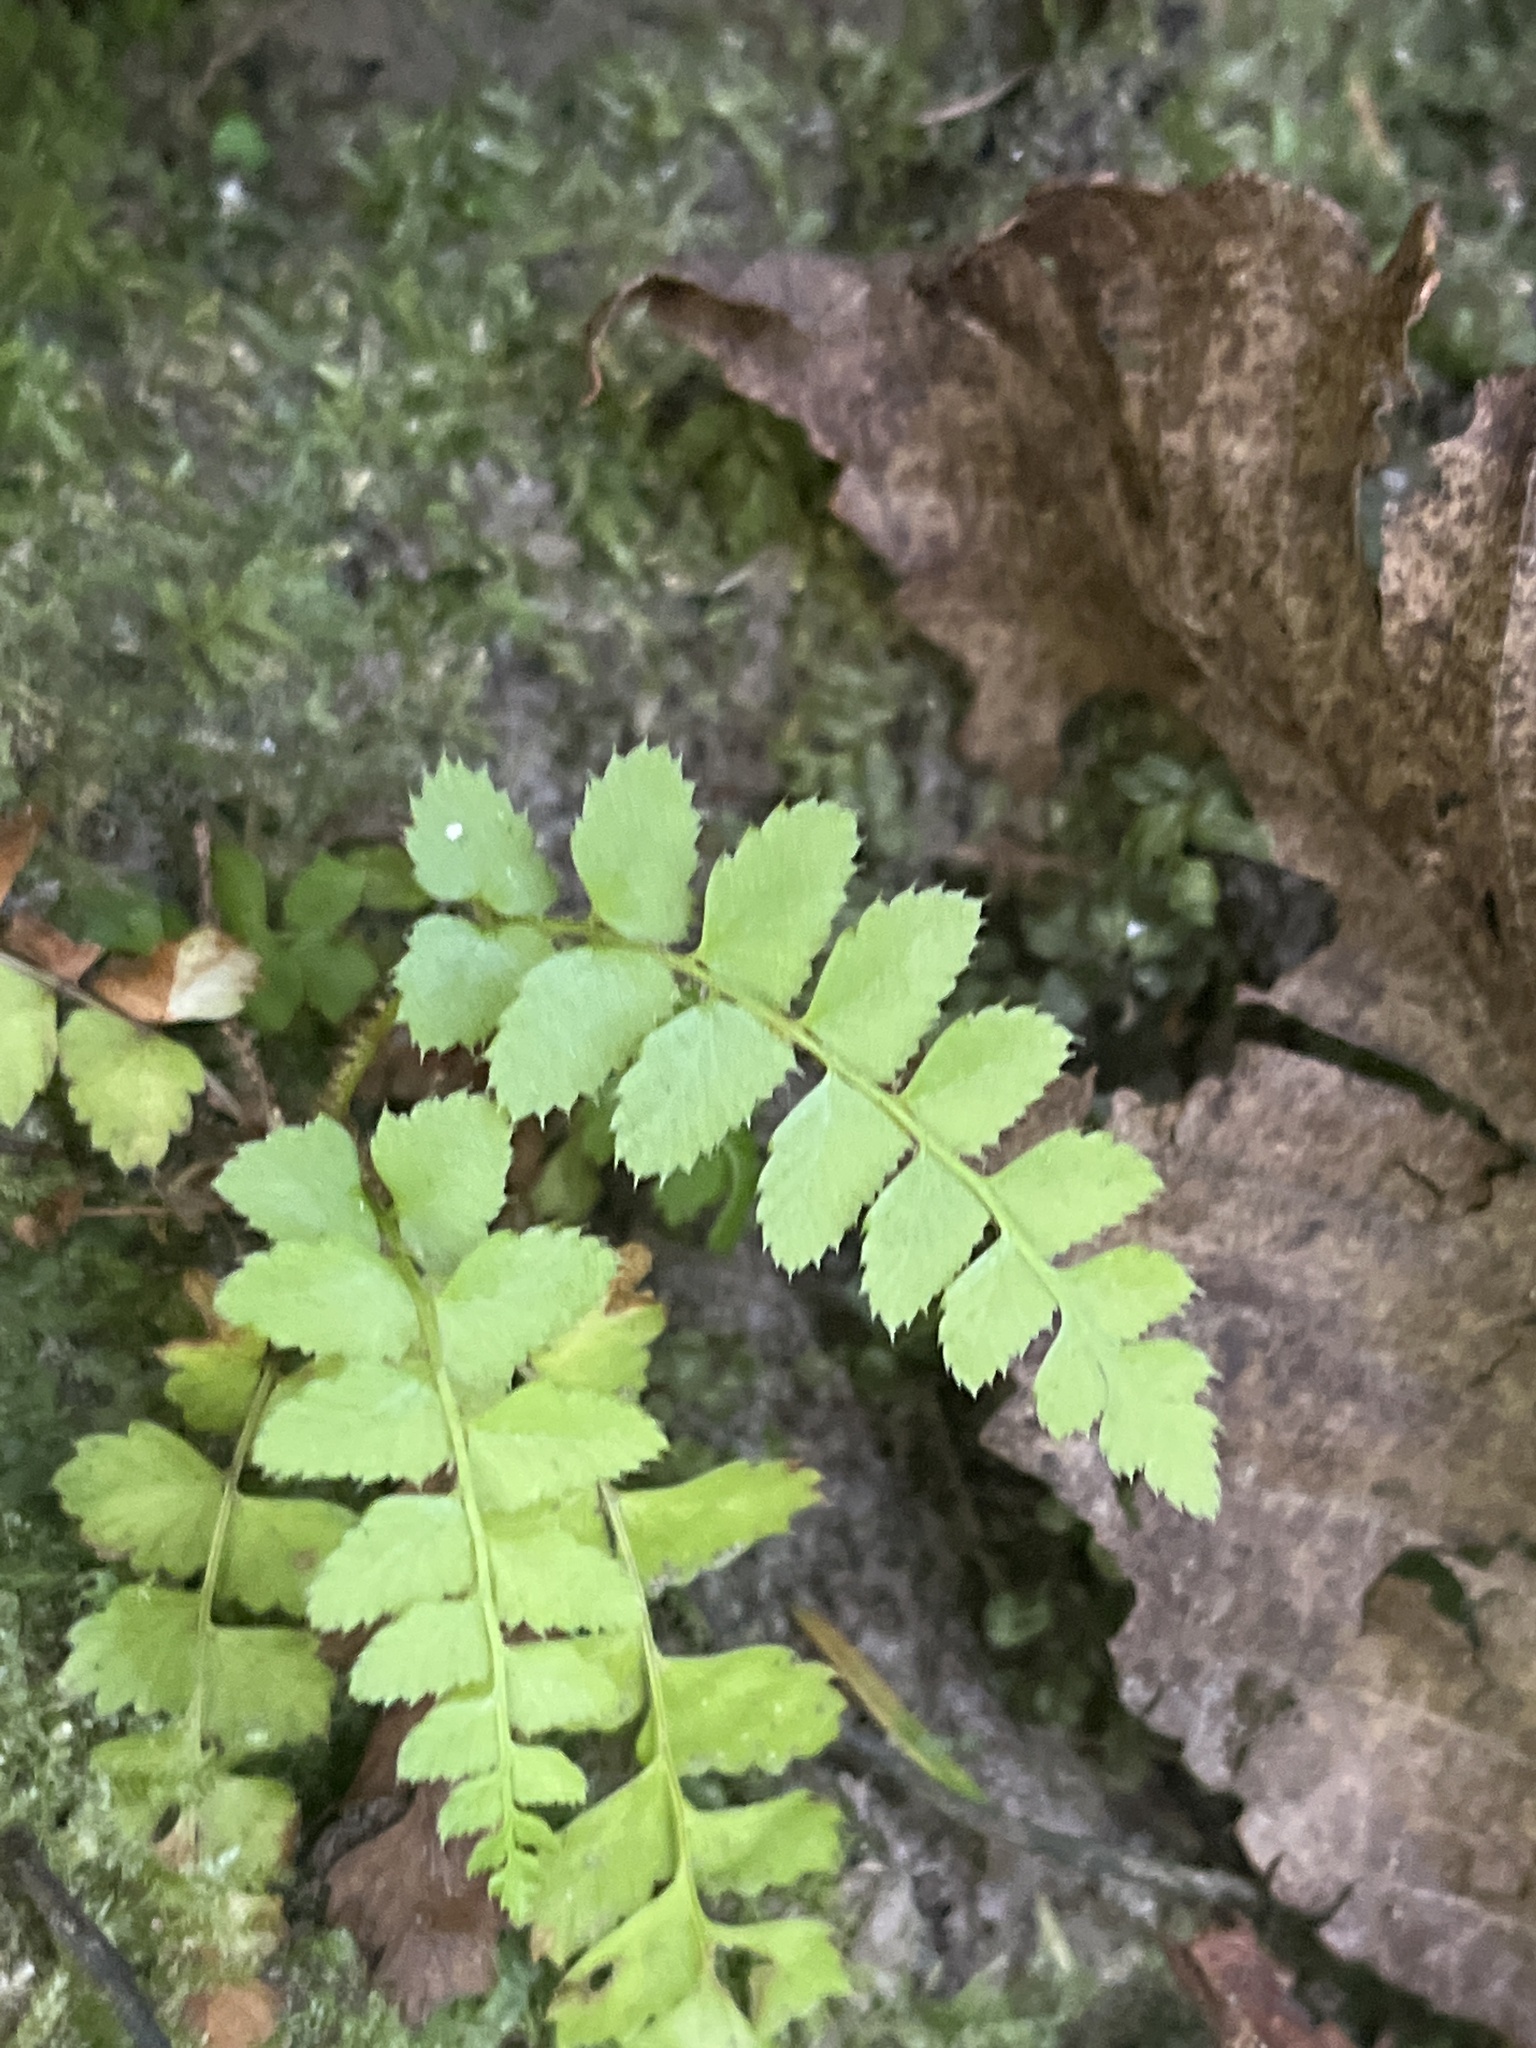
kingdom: Plantae
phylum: Tracheophyta
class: Polypodiopsida
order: Polypodiales
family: Dryopteridaceae
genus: Polystichum
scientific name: Polystichum munitum
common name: Western sword-fern
